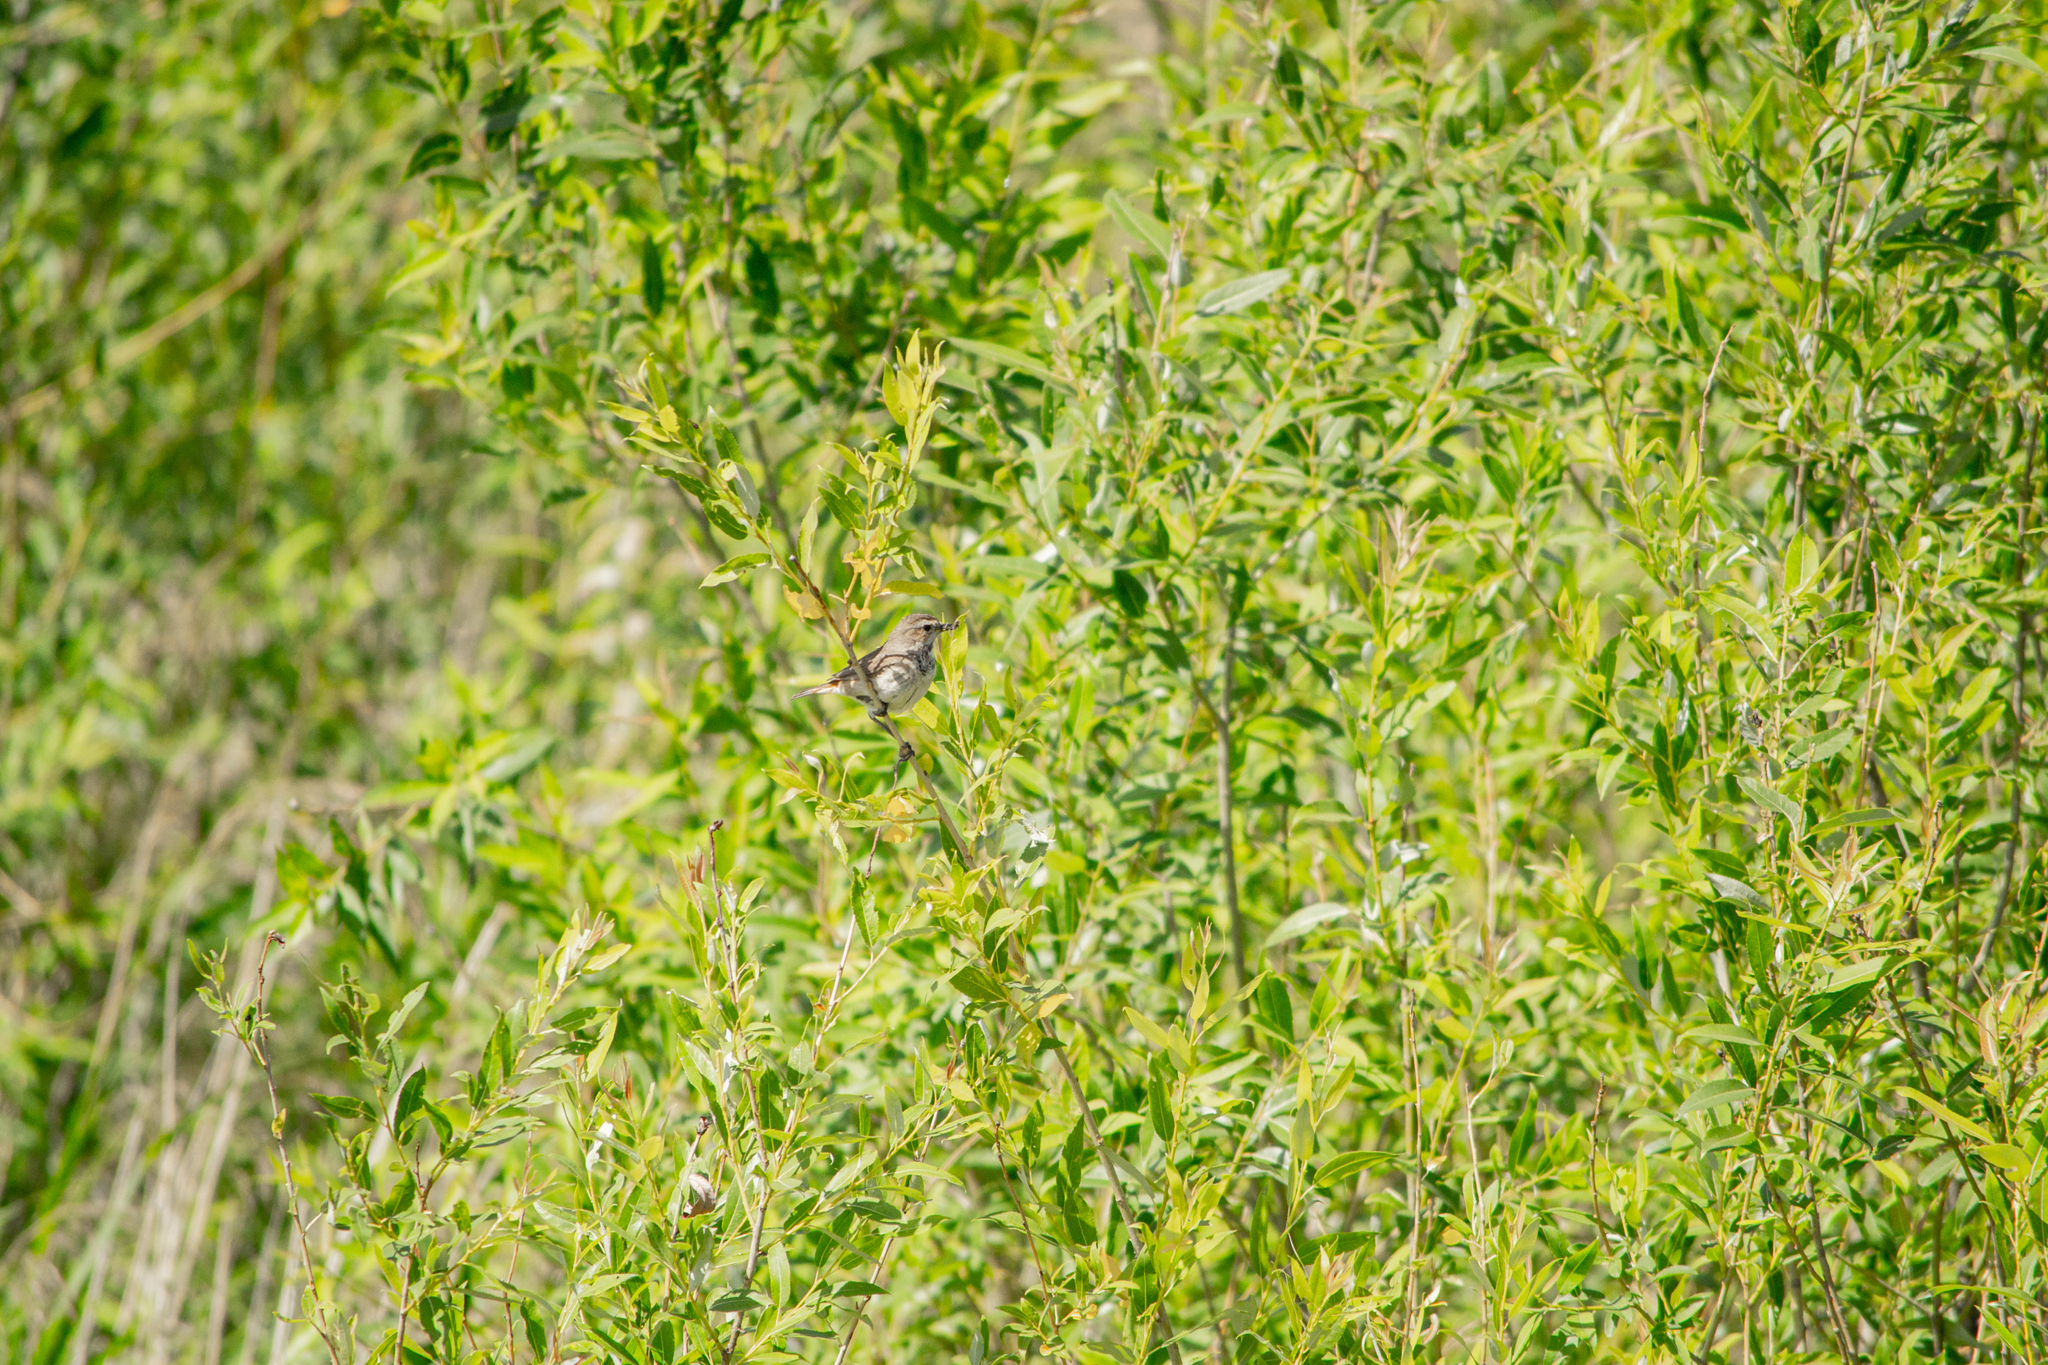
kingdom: Animalia
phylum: Chordata
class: Aves
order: Passeriformes
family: Muscicapidae
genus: Luscinia
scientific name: Luscinia svecica
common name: Bluethroat
